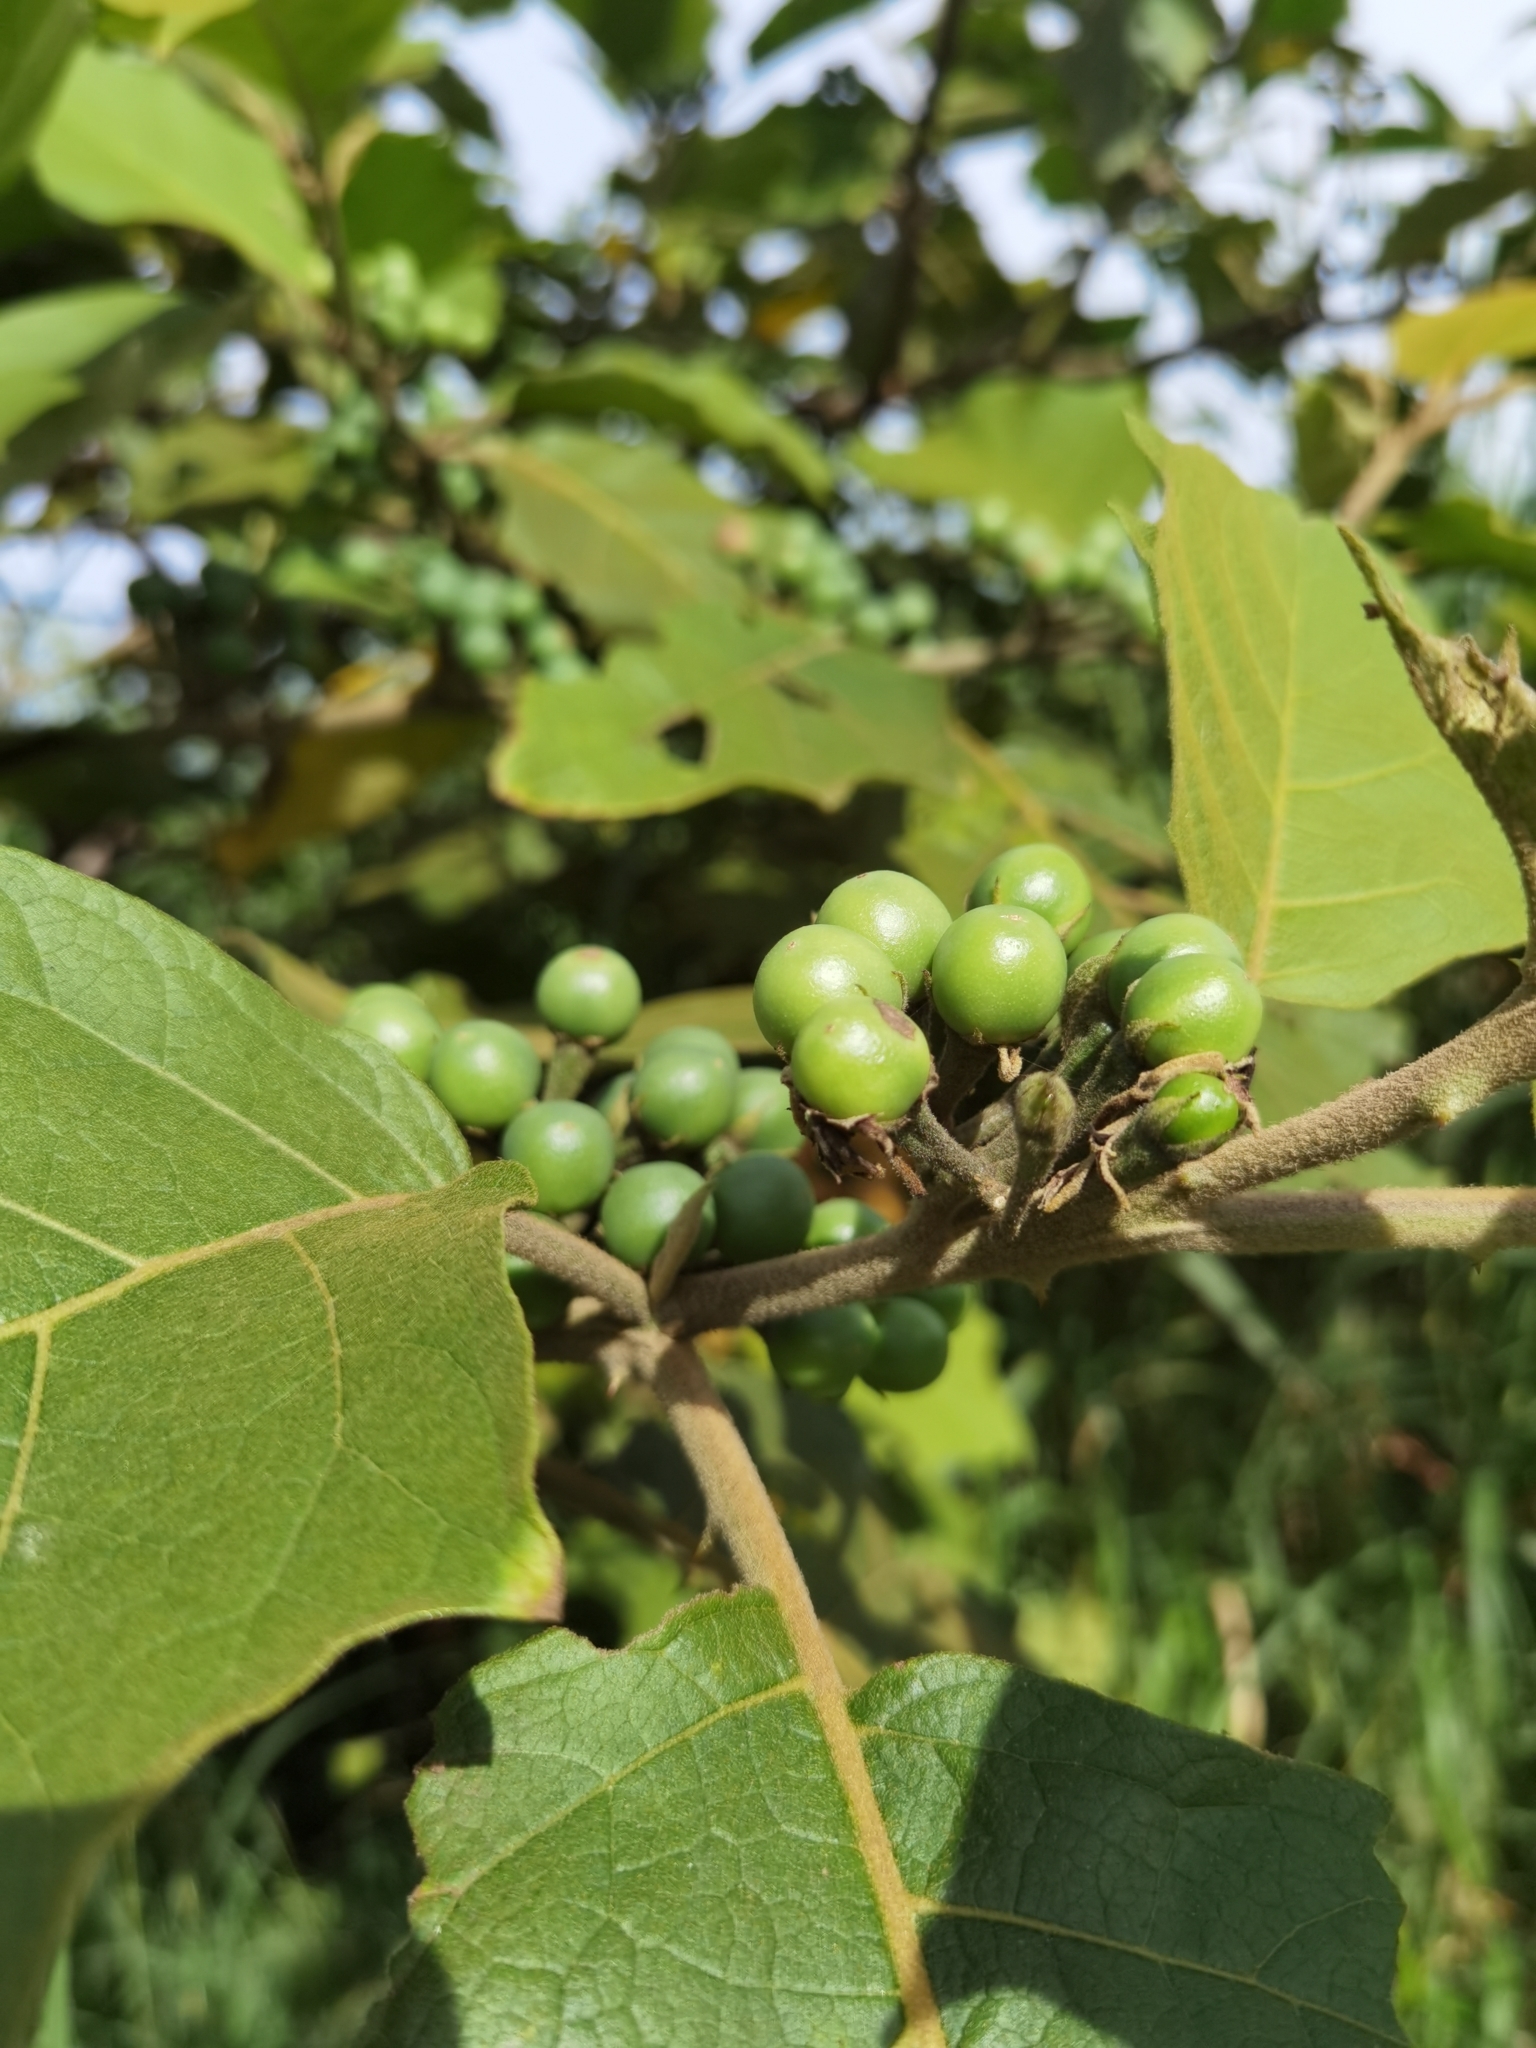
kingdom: Plantae
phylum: Tracheophyta
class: Magnoliopsida
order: Solanales
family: Solanaceae
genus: Solanum
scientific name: Solanum rude-pannum
